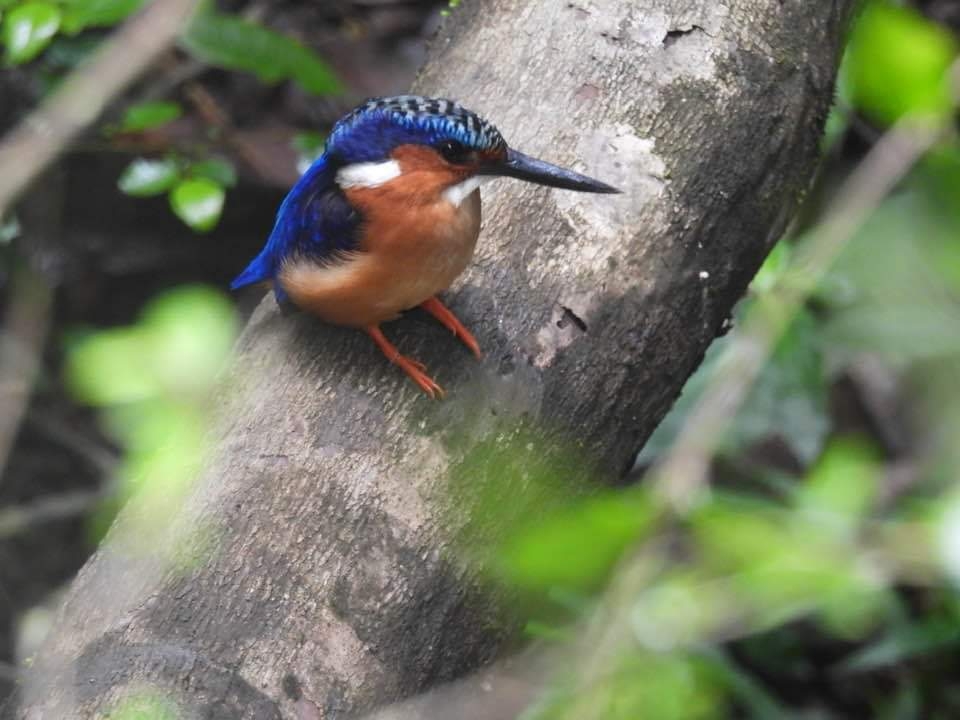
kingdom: Animalia
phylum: Chordata
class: Aves
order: Coraciiformes
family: Alcedinidae
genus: Corythornis
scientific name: Corythornis vintsioides
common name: Malagasy kingfisher
